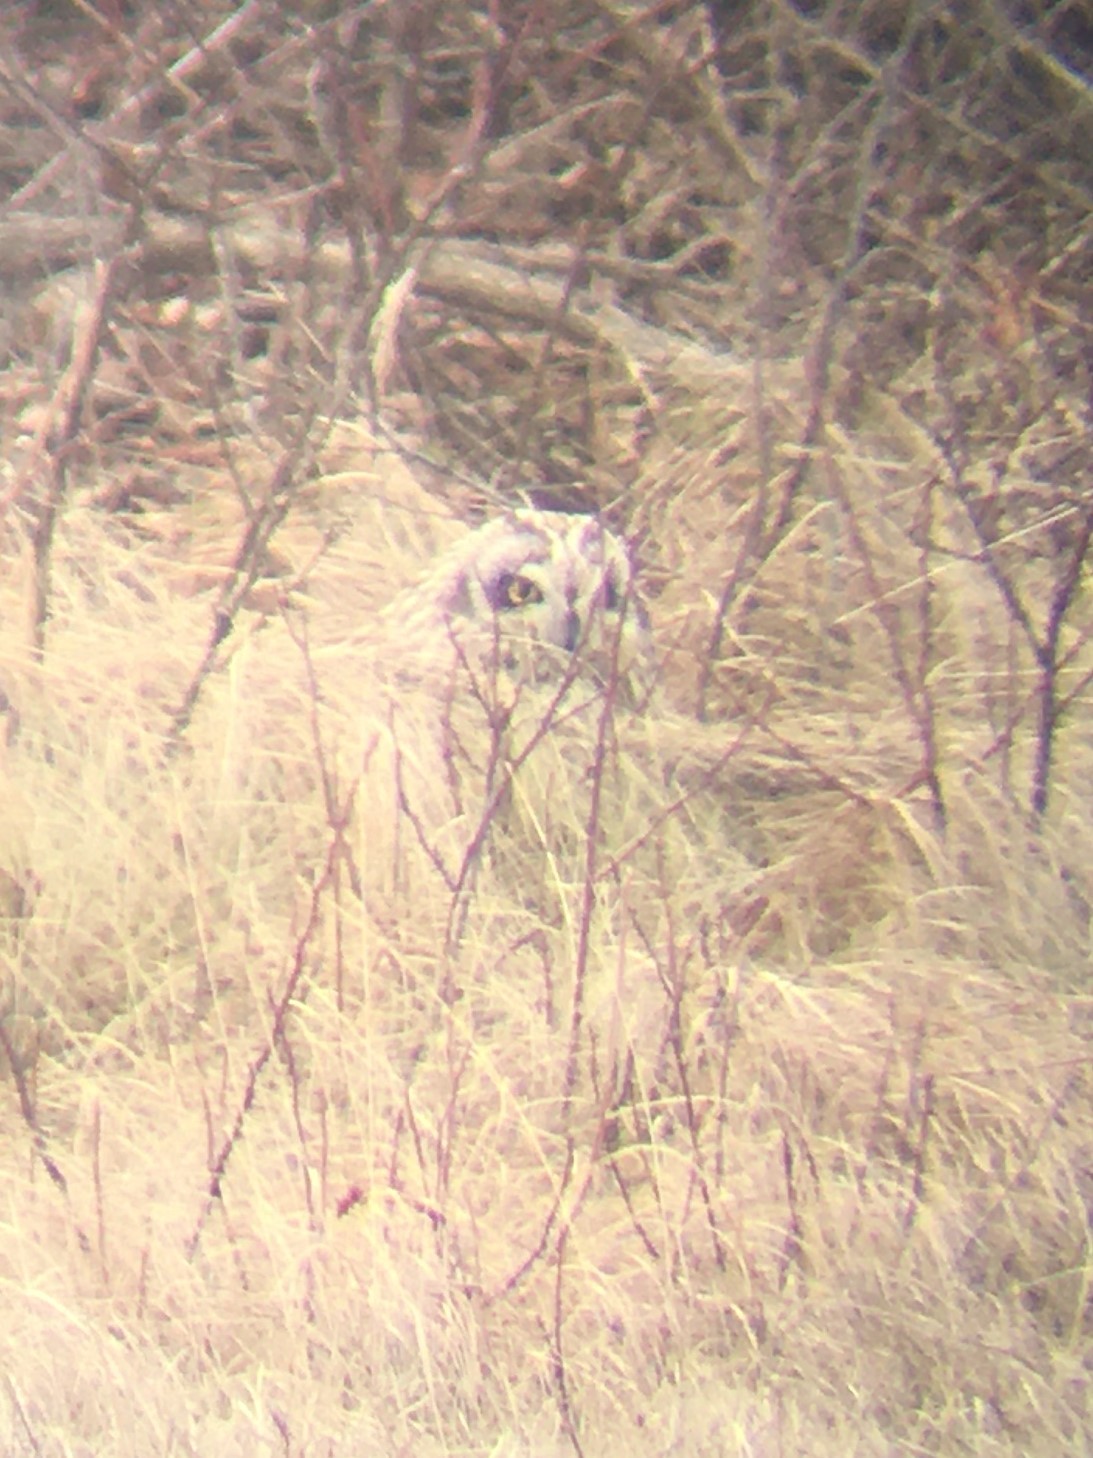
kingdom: Animalia
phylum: Chordata
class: Aves
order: Strigiformes
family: Strigidae
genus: Asio
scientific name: Asio flammeus
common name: Short-eared owl
